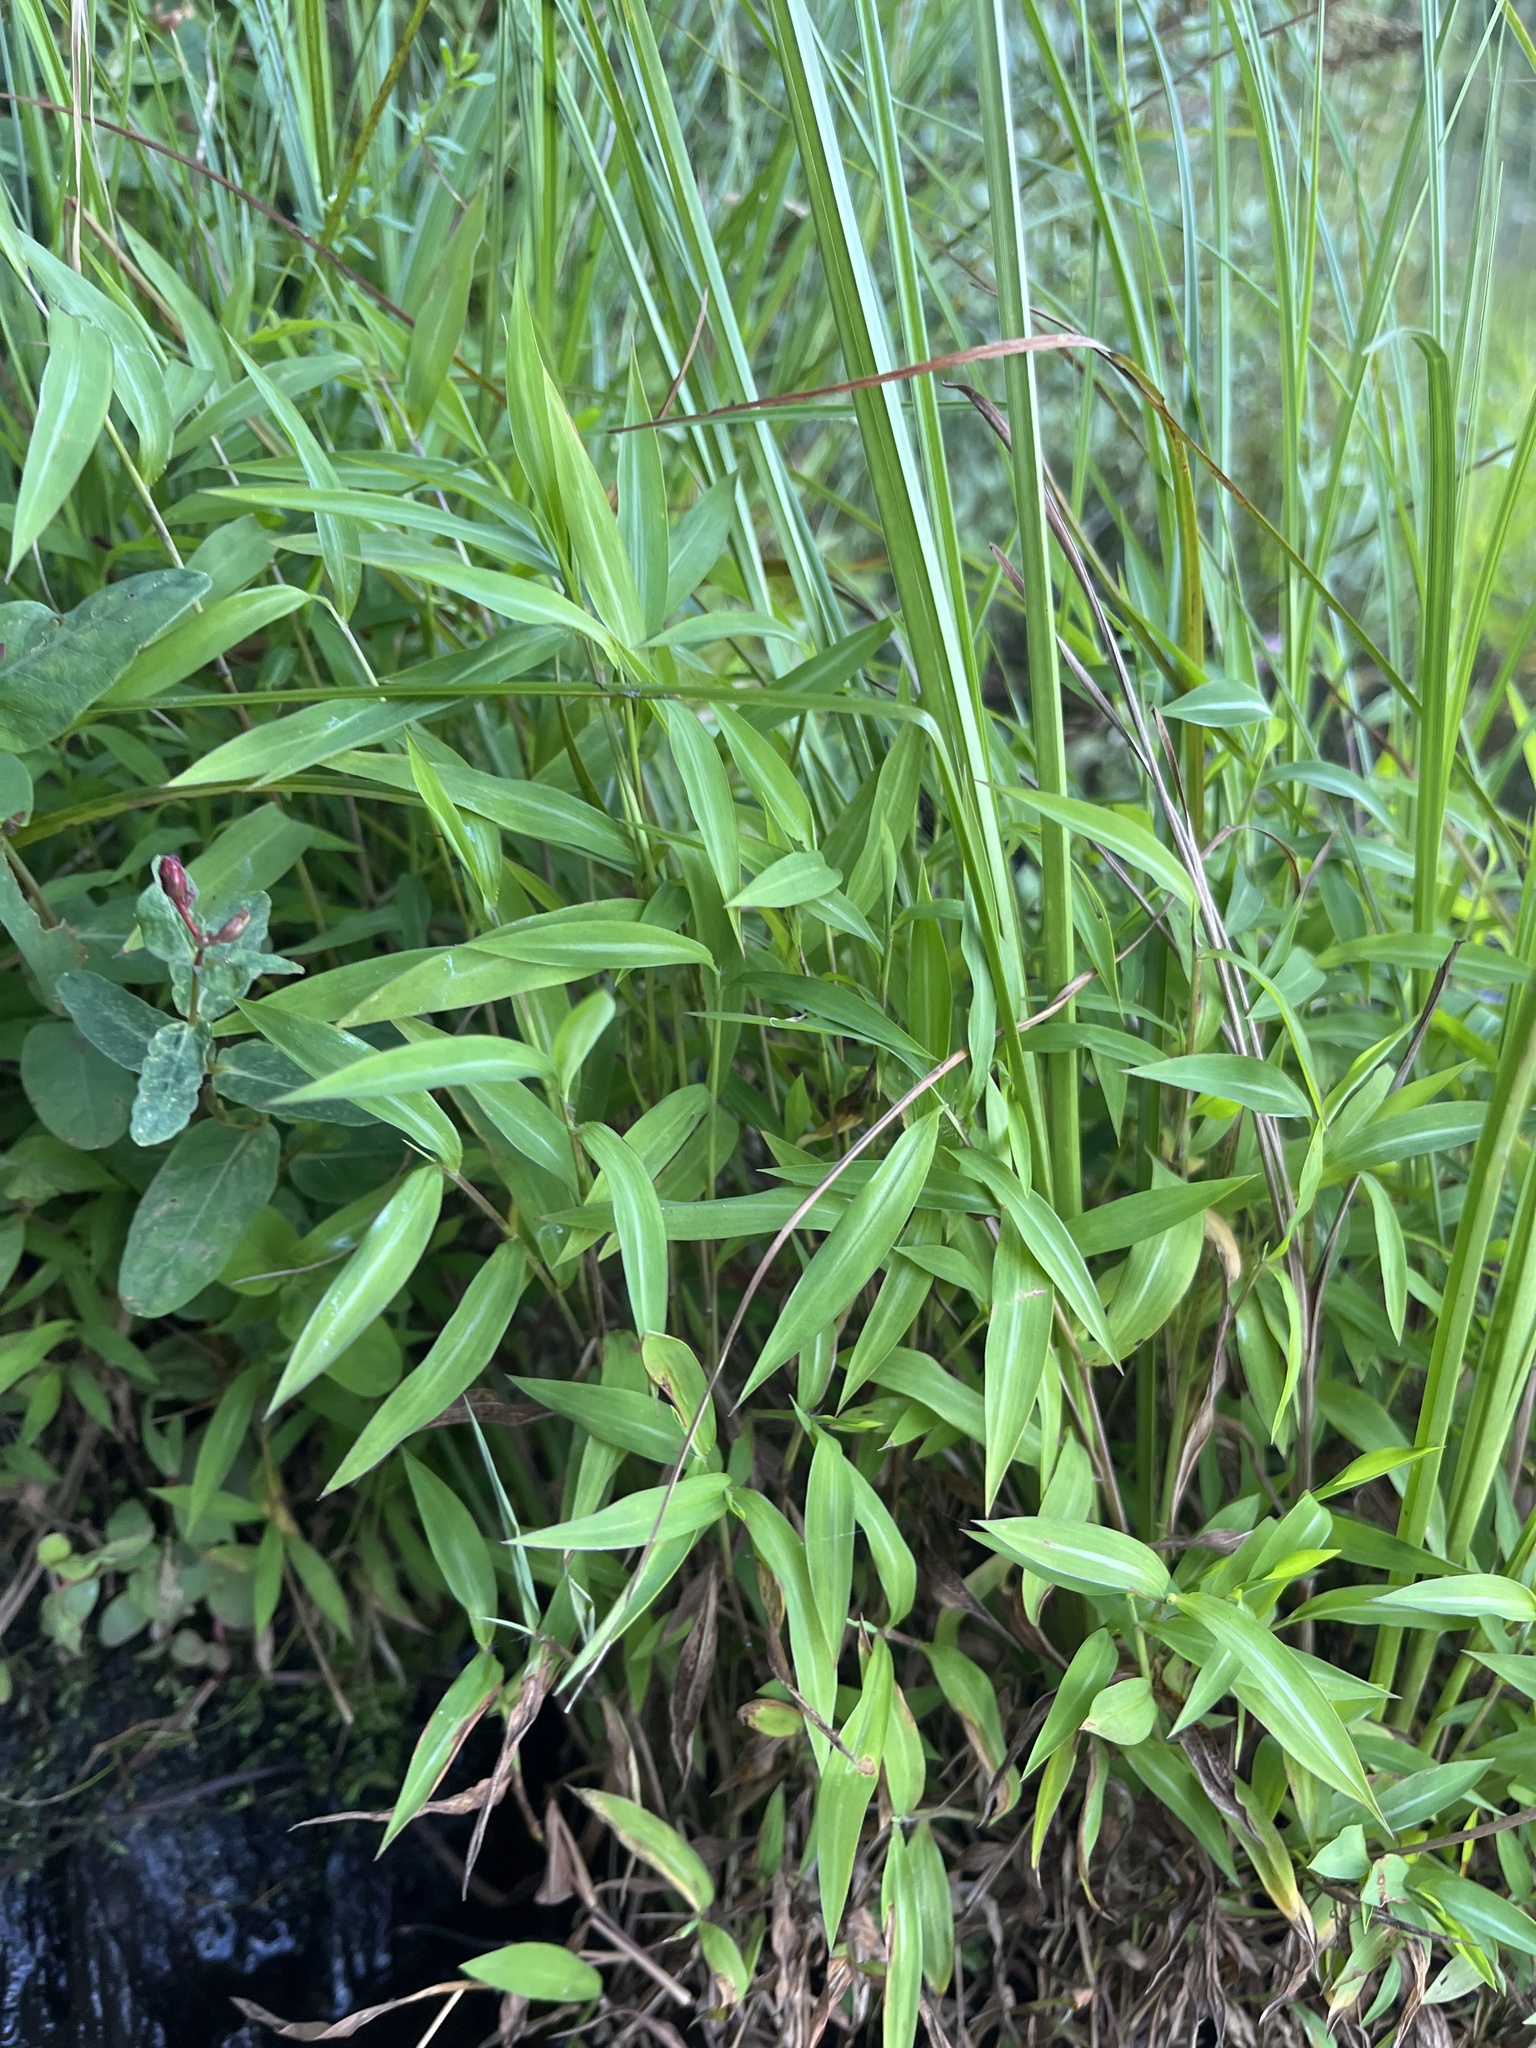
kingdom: Plantae
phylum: Tracheophyta
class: Liliopsida
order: Poales
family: Poaceae
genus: Microstegium
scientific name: Microstegium vimineum
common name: Japanese stiltgrass
